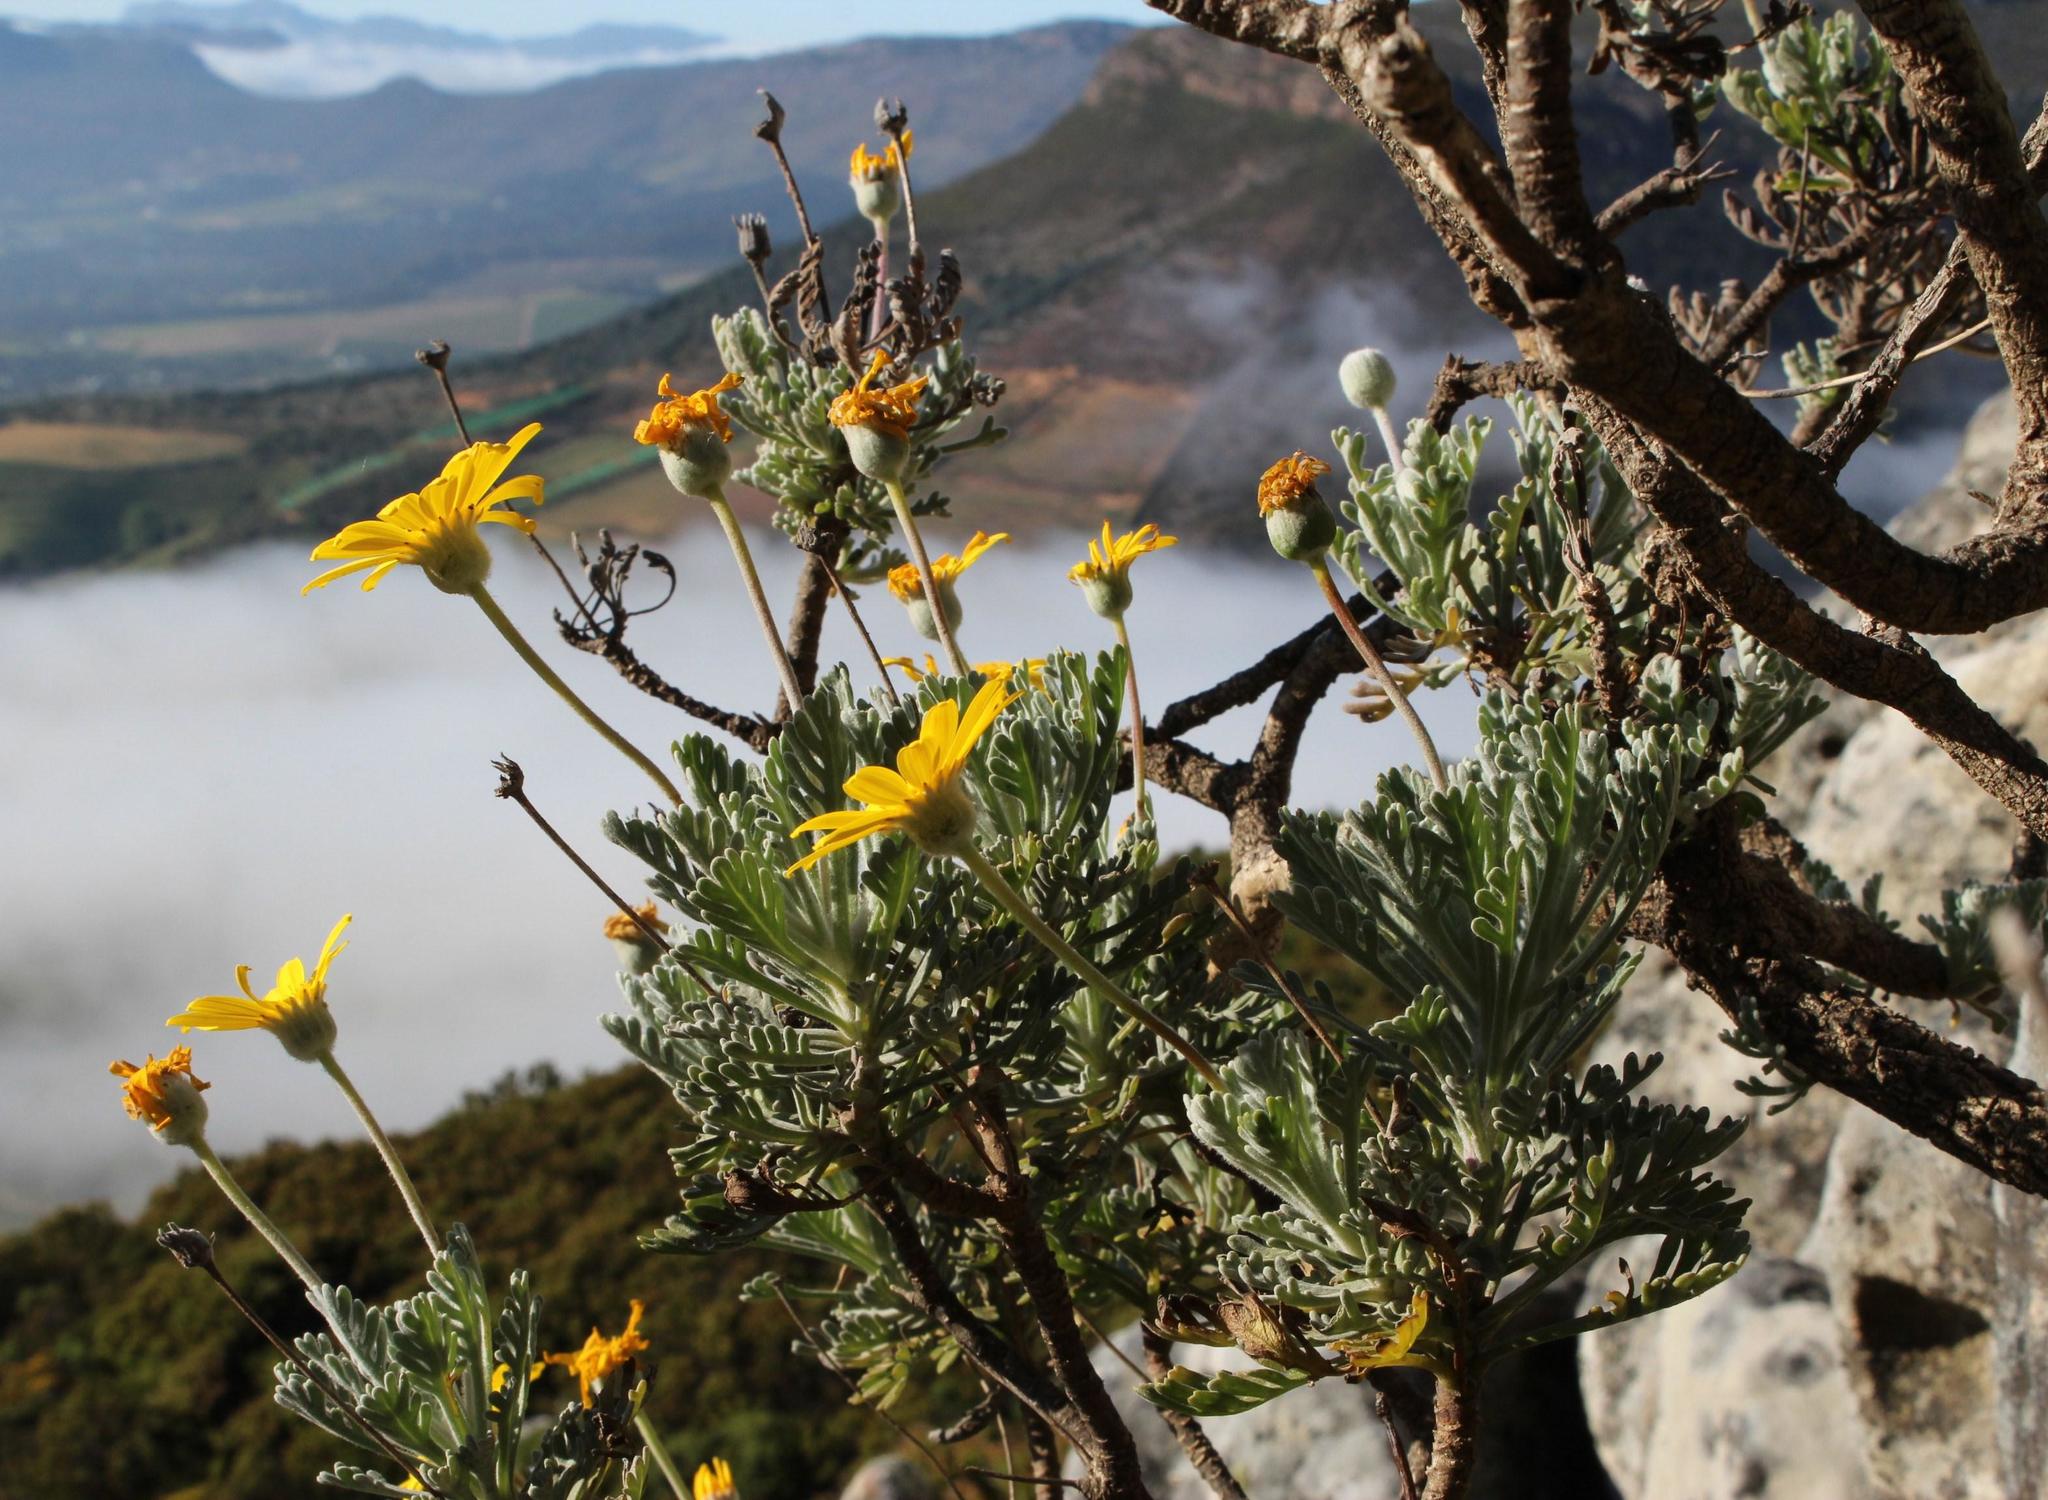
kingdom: Plantae
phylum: Tracheophyta
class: Magnoliopsida
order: Asterales
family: Asteraceae
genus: Euryops
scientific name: Euryops pectinatus
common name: Gray-leaf euryops
